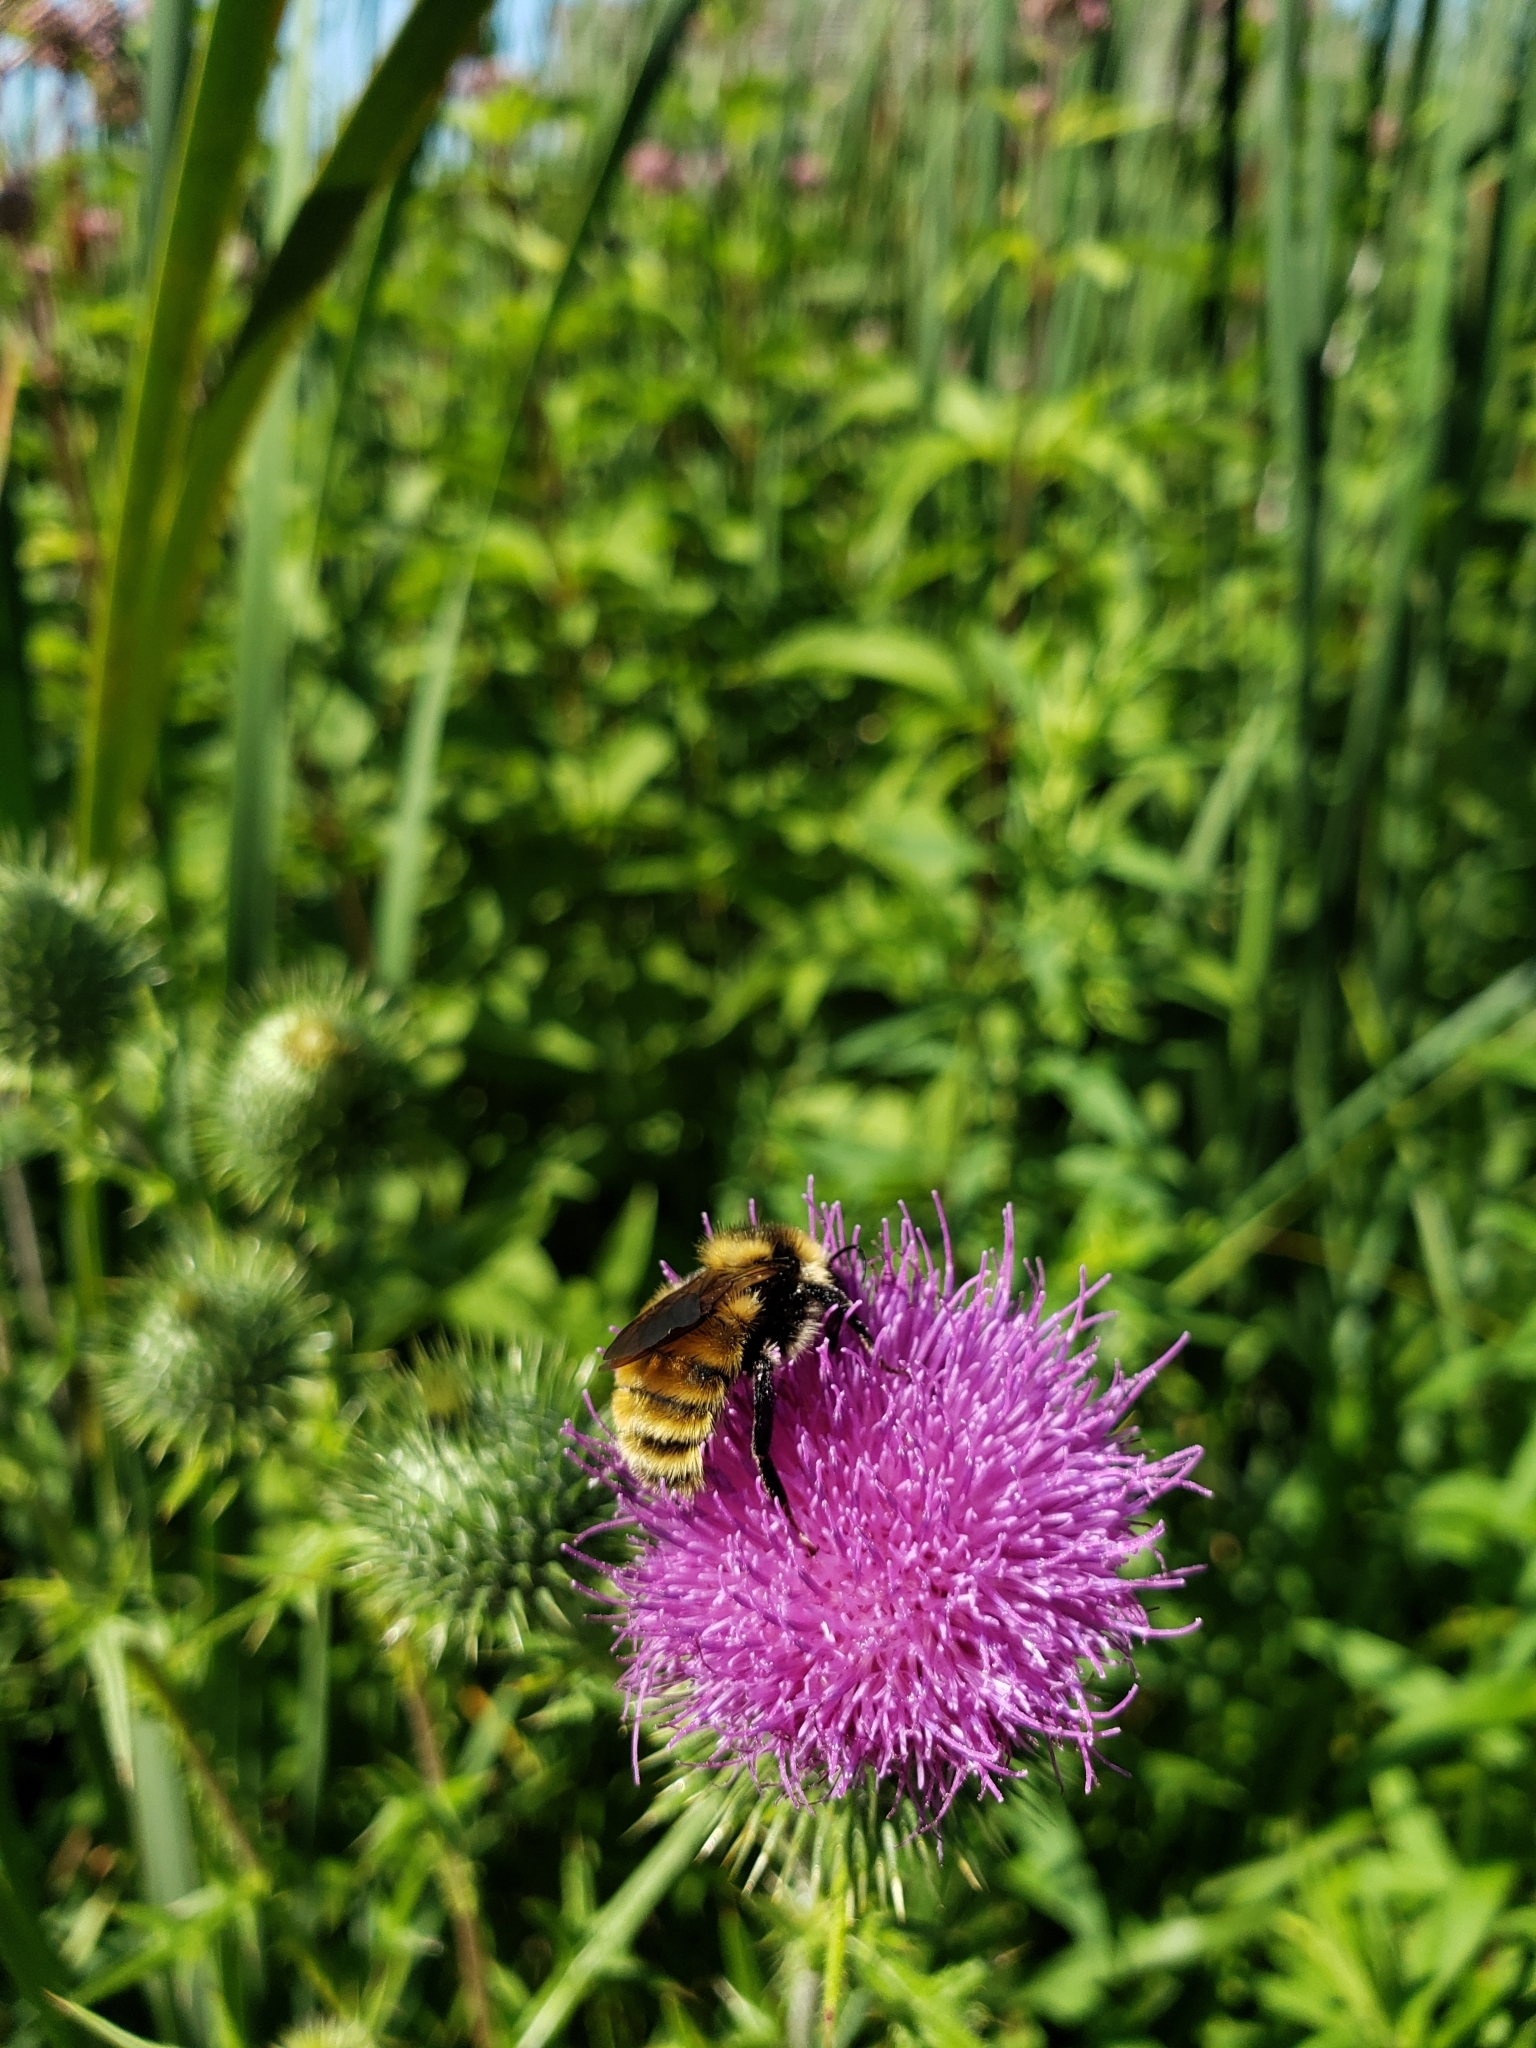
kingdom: Animalia
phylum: Arthropoda
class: Insecta
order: Hymenoptera
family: Apidae
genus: Bombus
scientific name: Bombus borealis
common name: Northern amber bumble bee
